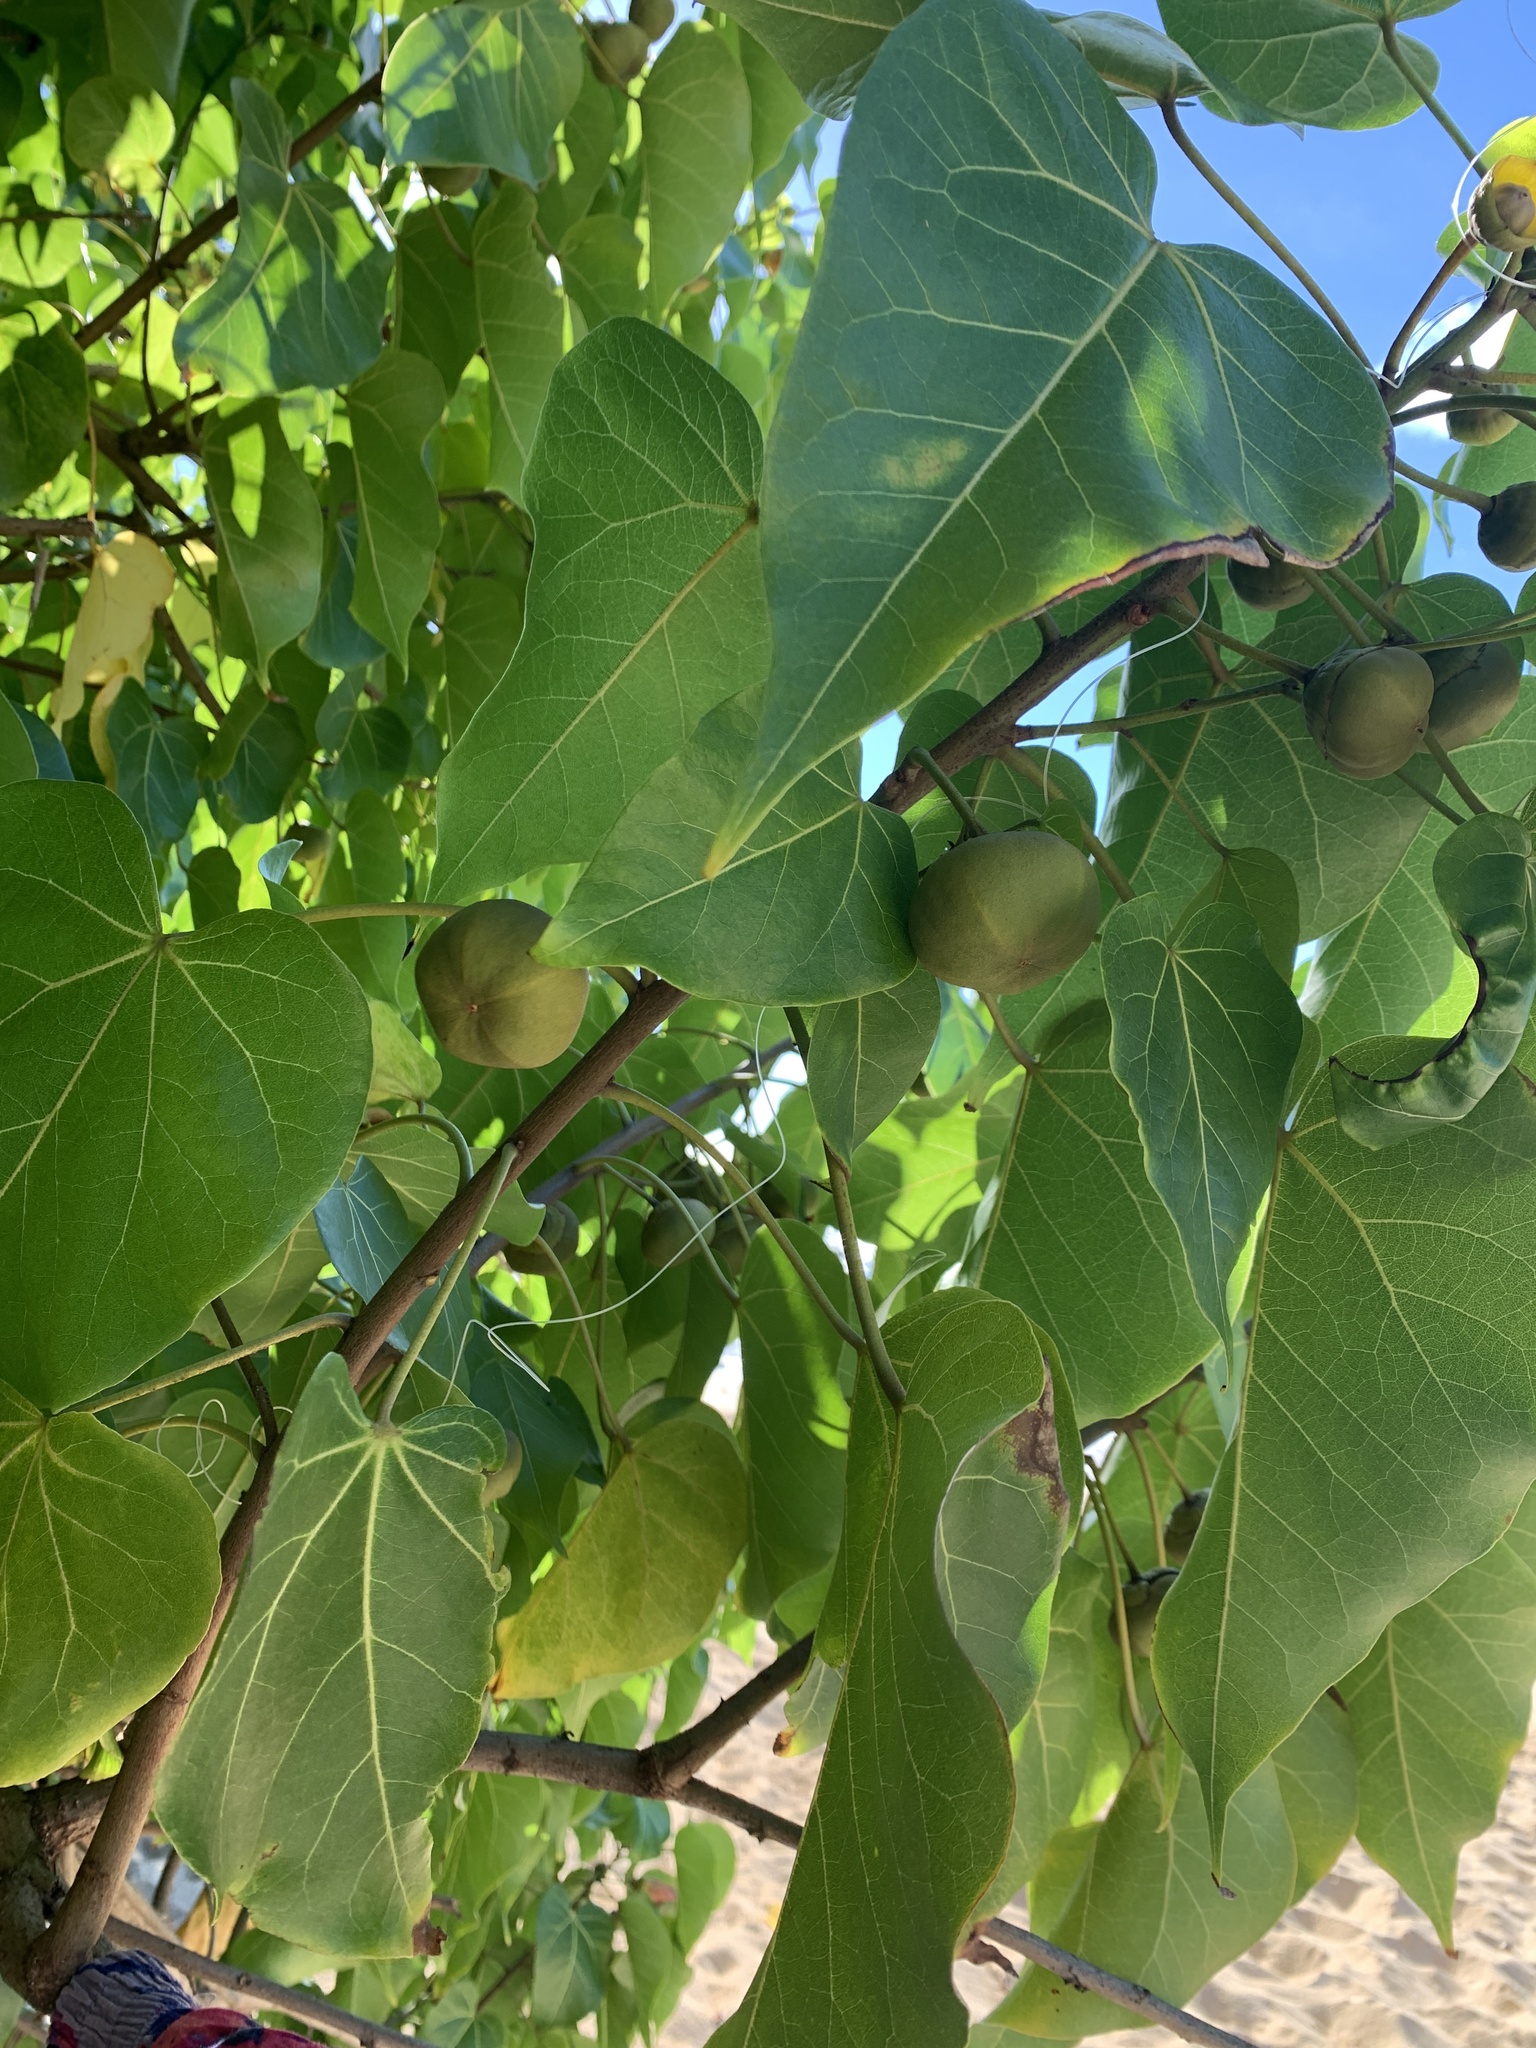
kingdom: Plantae
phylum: Tracheophyta
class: Magnoliopsida
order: Malvales
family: Malvaceae
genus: Thespesia
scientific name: Thespesia populnea
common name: Seaside mahoe
